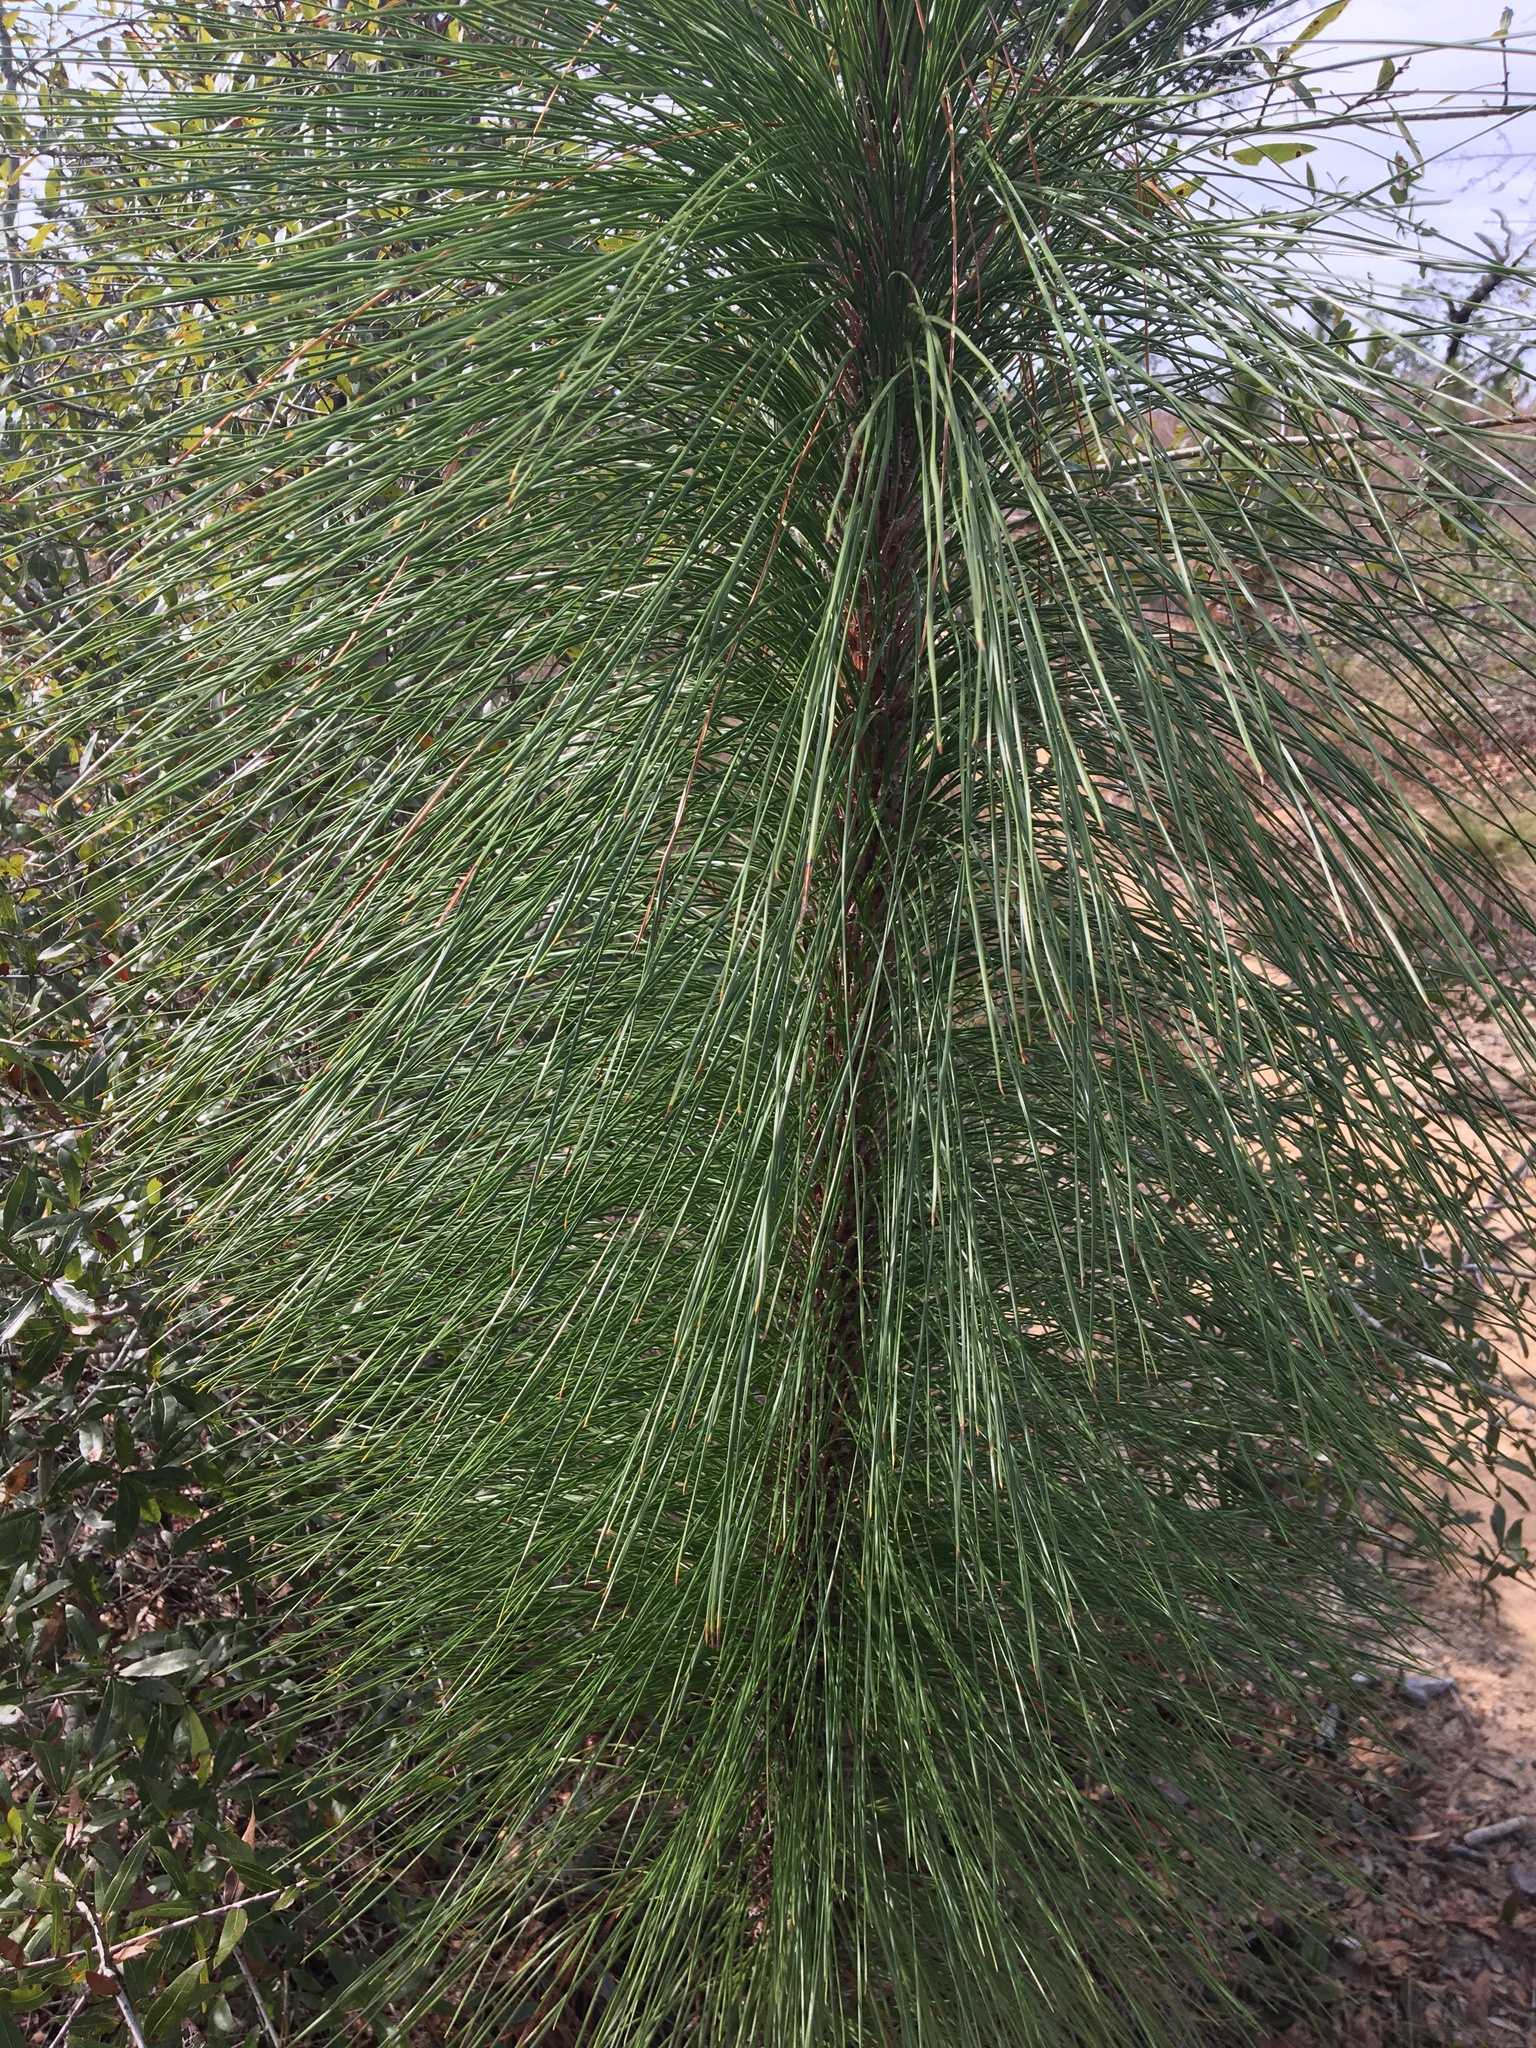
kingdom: Plantae
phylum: Tracheophyta
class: Pinopsida
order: Pinales
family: Pinaceae
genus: Pinus
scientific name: Pinus palustris
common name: Longleaf pine
